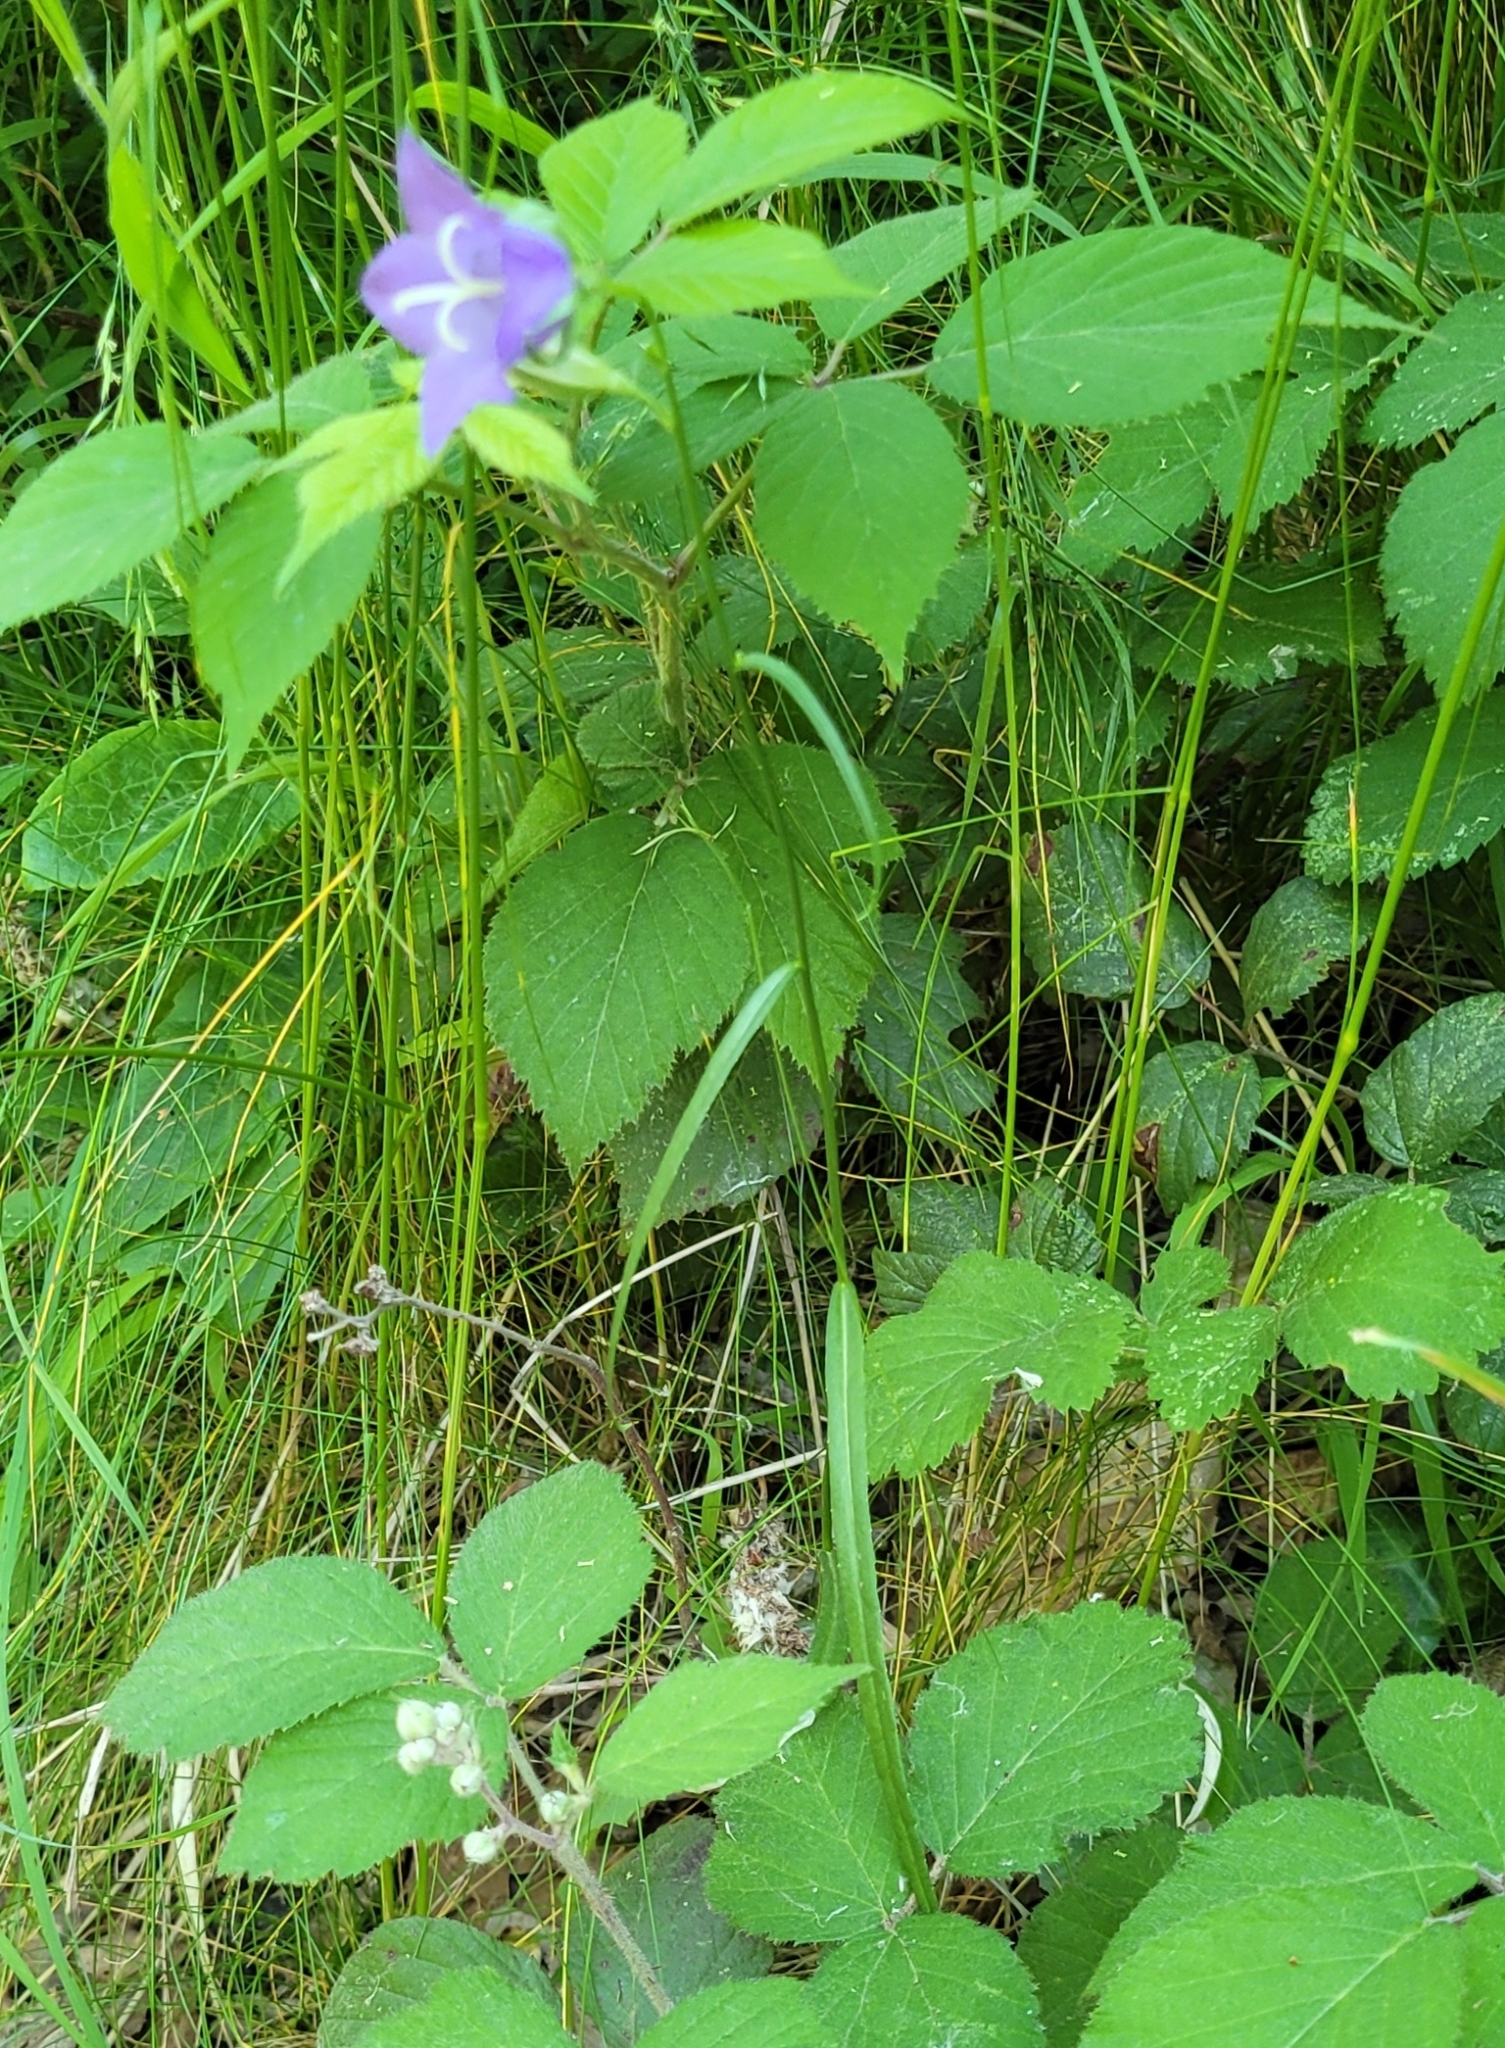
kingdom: Plantae
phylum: Tracheophyta
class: Magnoliopsida
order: Asterales
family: Campanulaceae
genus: Campanula
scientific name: Campanula persicifolia
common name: Peach-leaved bellflower
